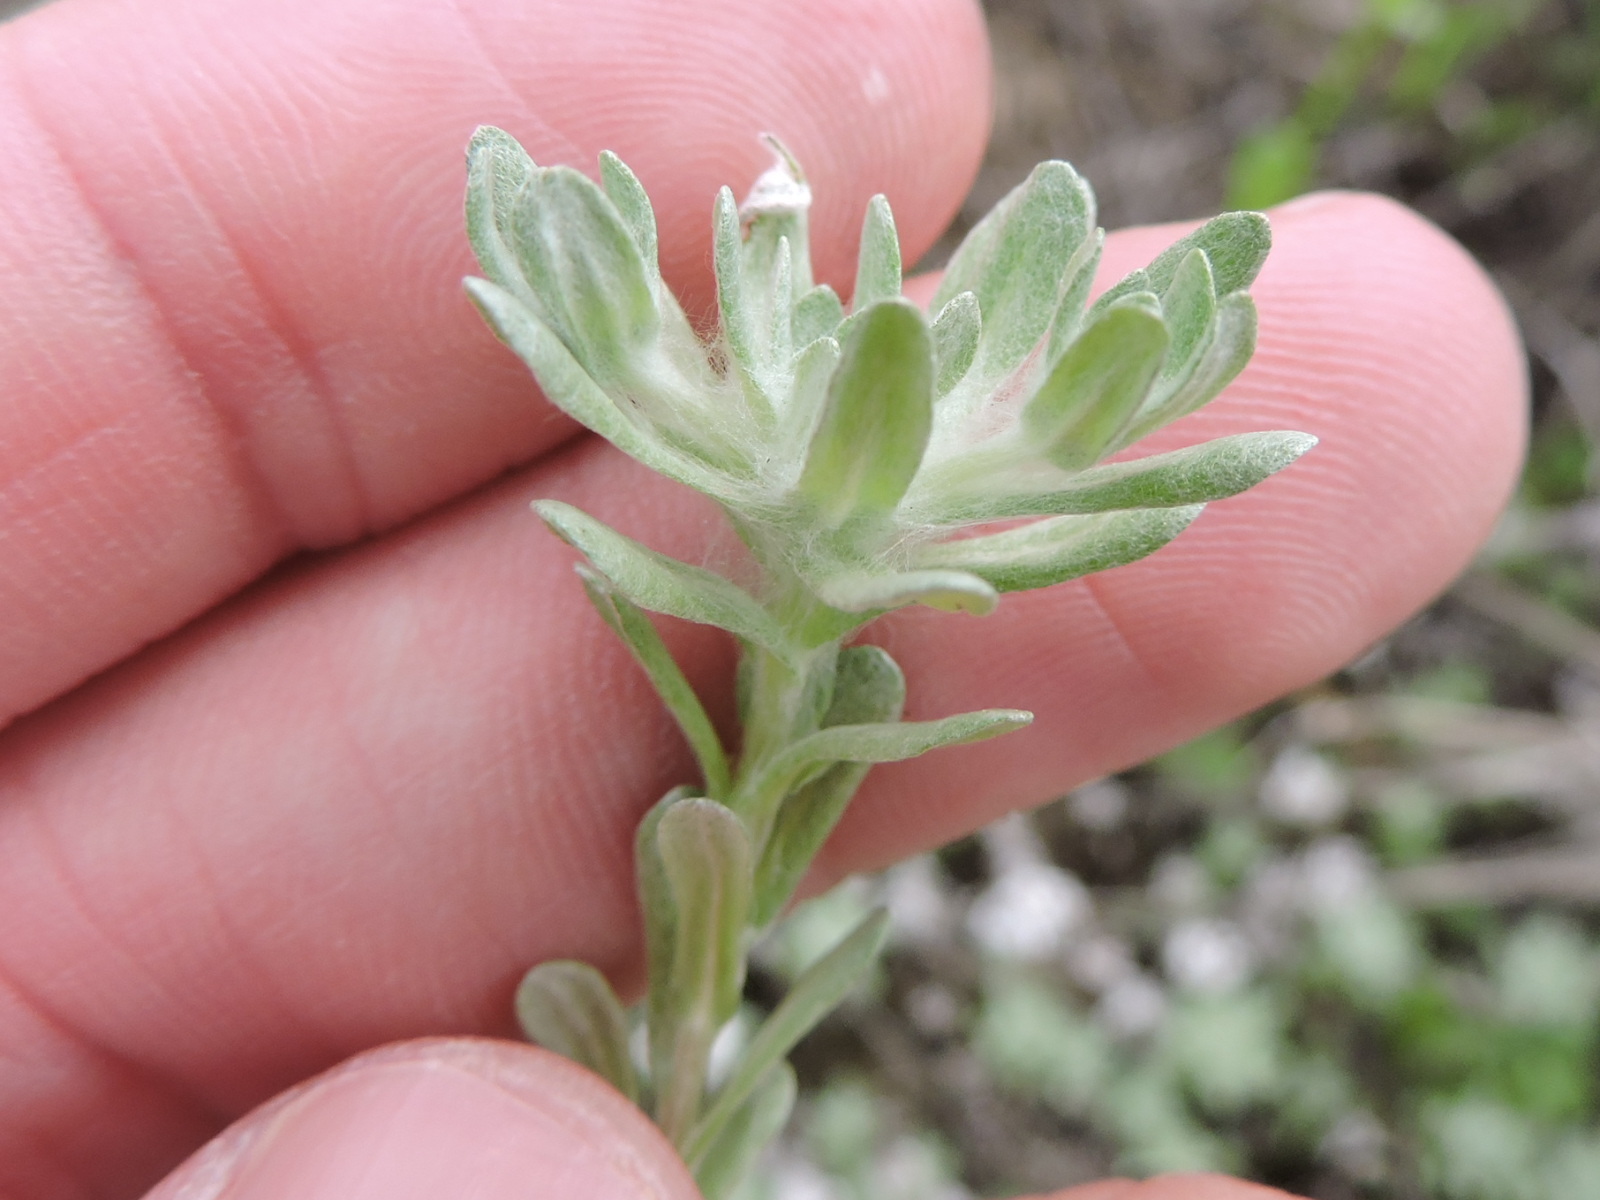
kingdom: Plantae
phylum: Tracheophyta
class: Magnoliopsida
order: Asterales
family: Asteraceae
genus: Diaperia
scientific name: Diaperia prolifera
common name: Big-head rabbit-tobacco
